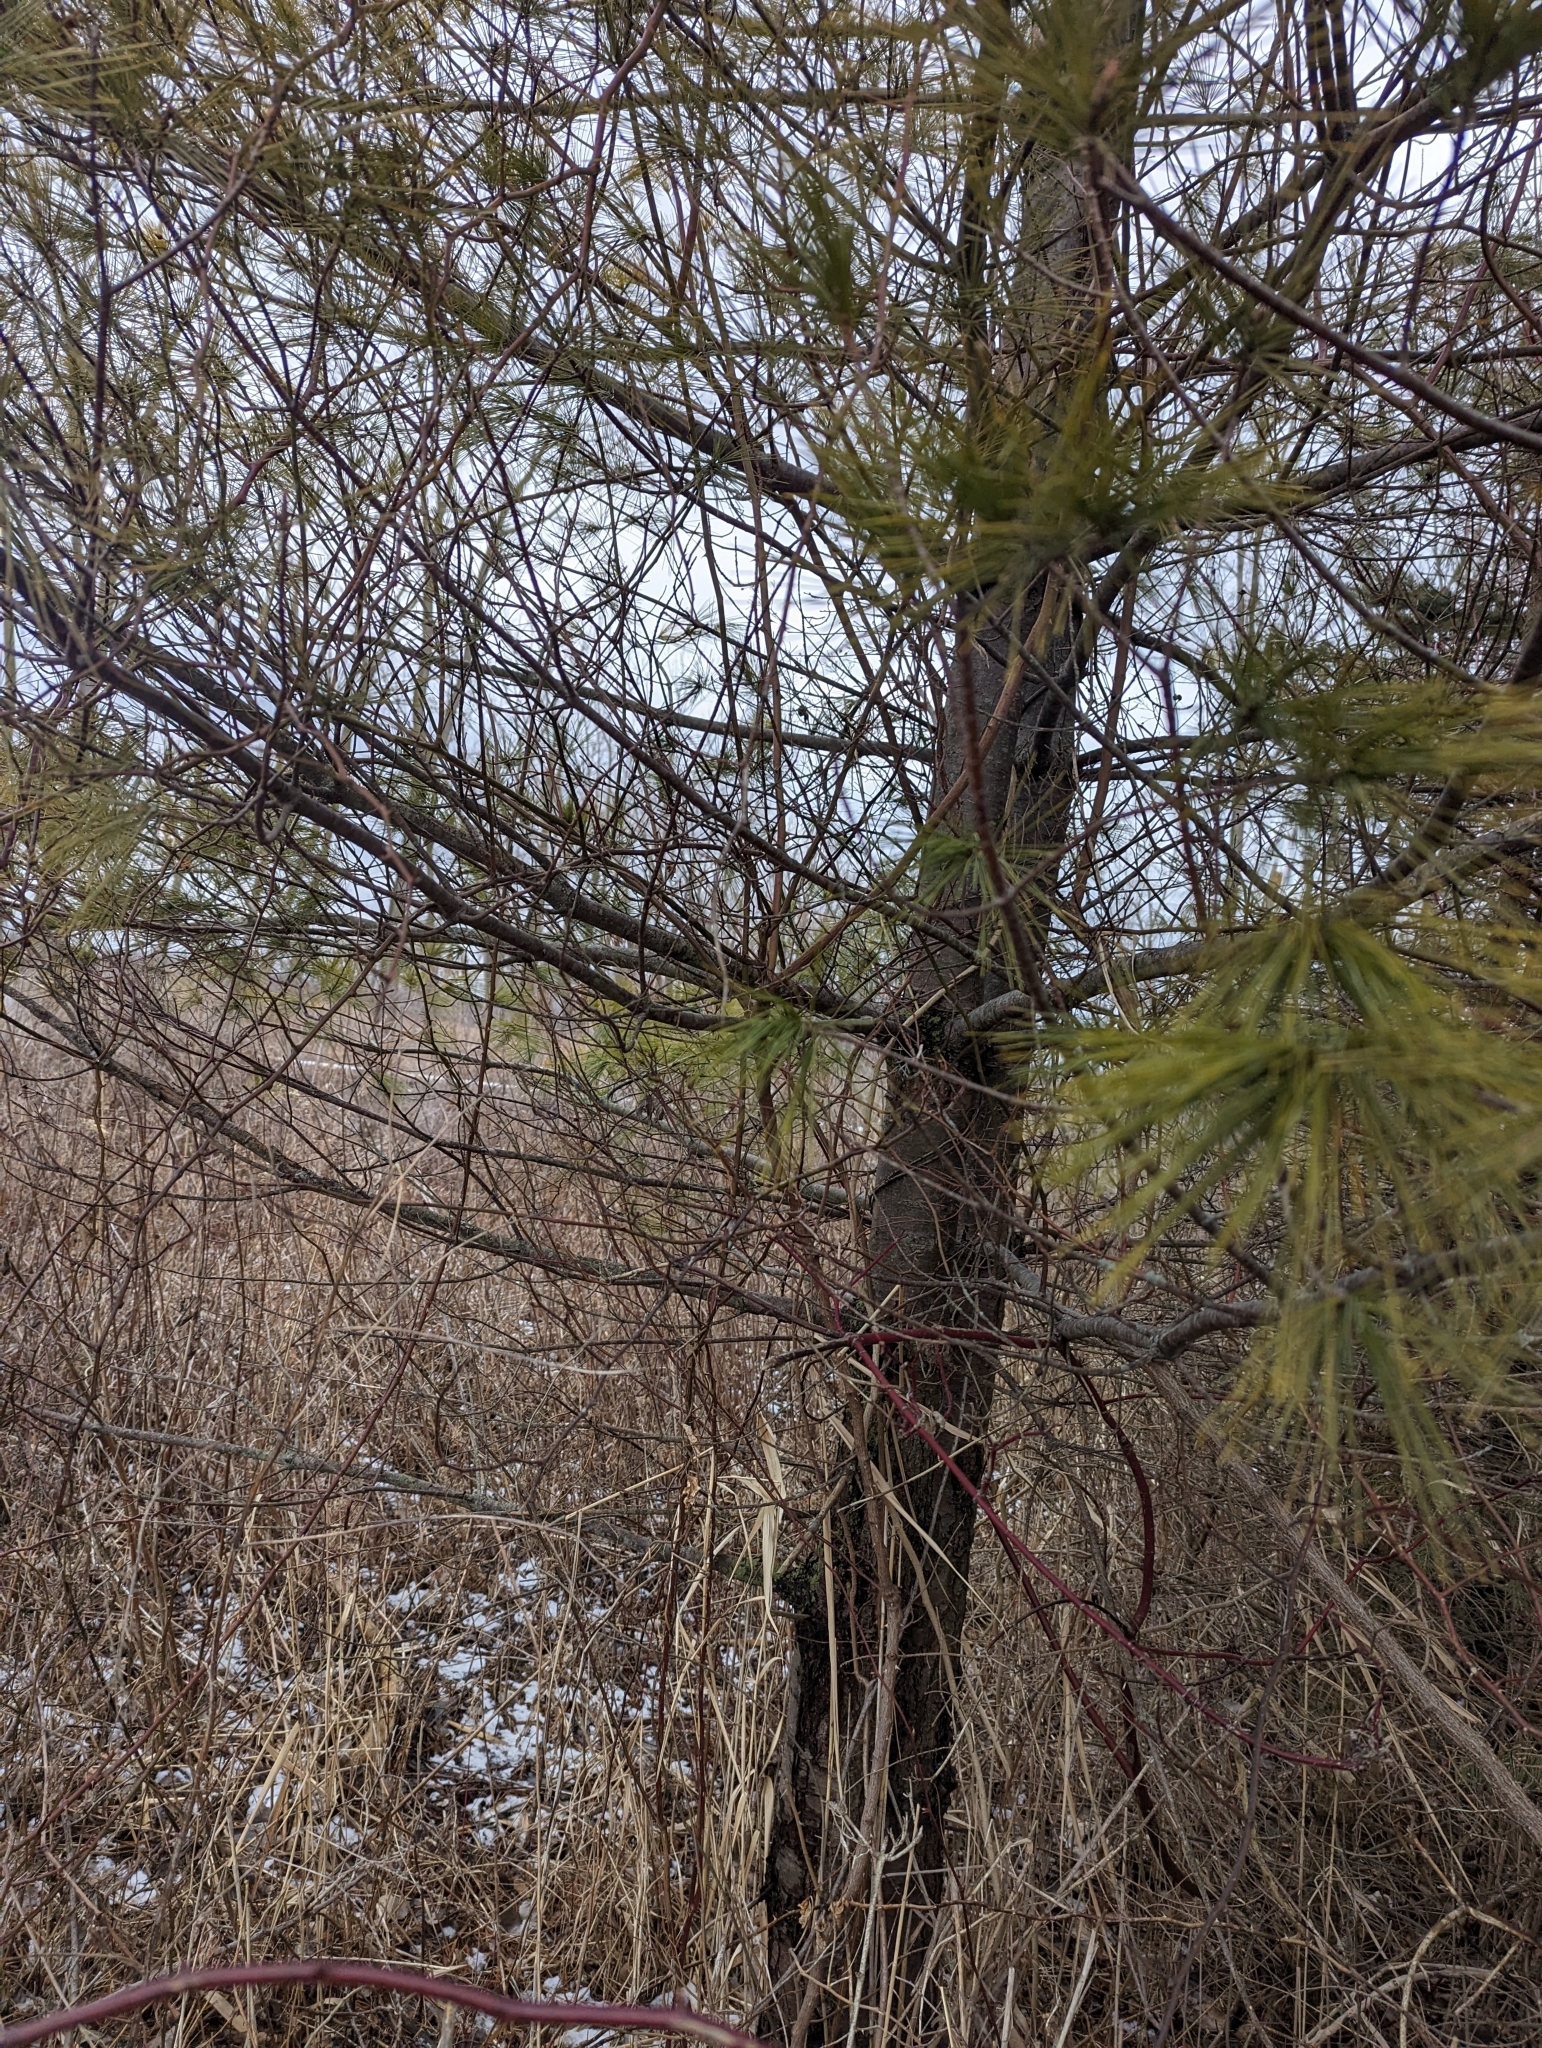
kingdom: Plantae
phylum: Tracheophyta
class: Pinopsida
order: Pinales
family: Pinaceae
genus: Pinus
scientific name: Pinus strobus
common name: Weymouth pine
